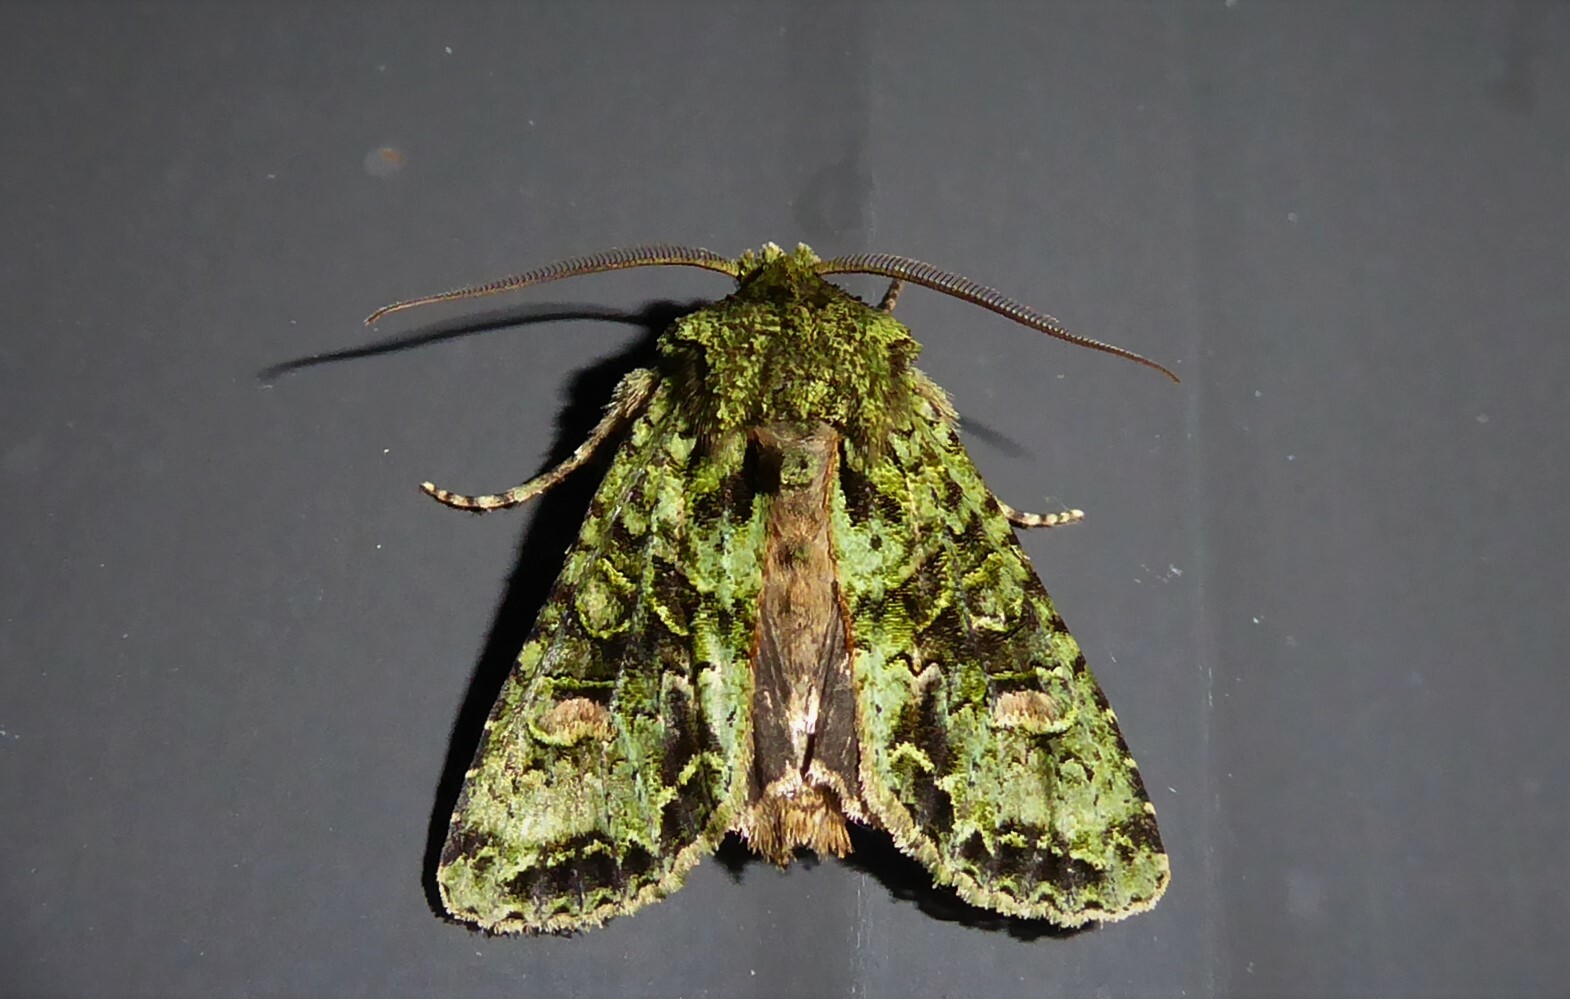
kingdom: Animalia
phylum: Arthropoda
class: Insecta
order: Lepidoptera
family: Noctuidae
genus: Ichneutica
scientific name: Ichneutica
